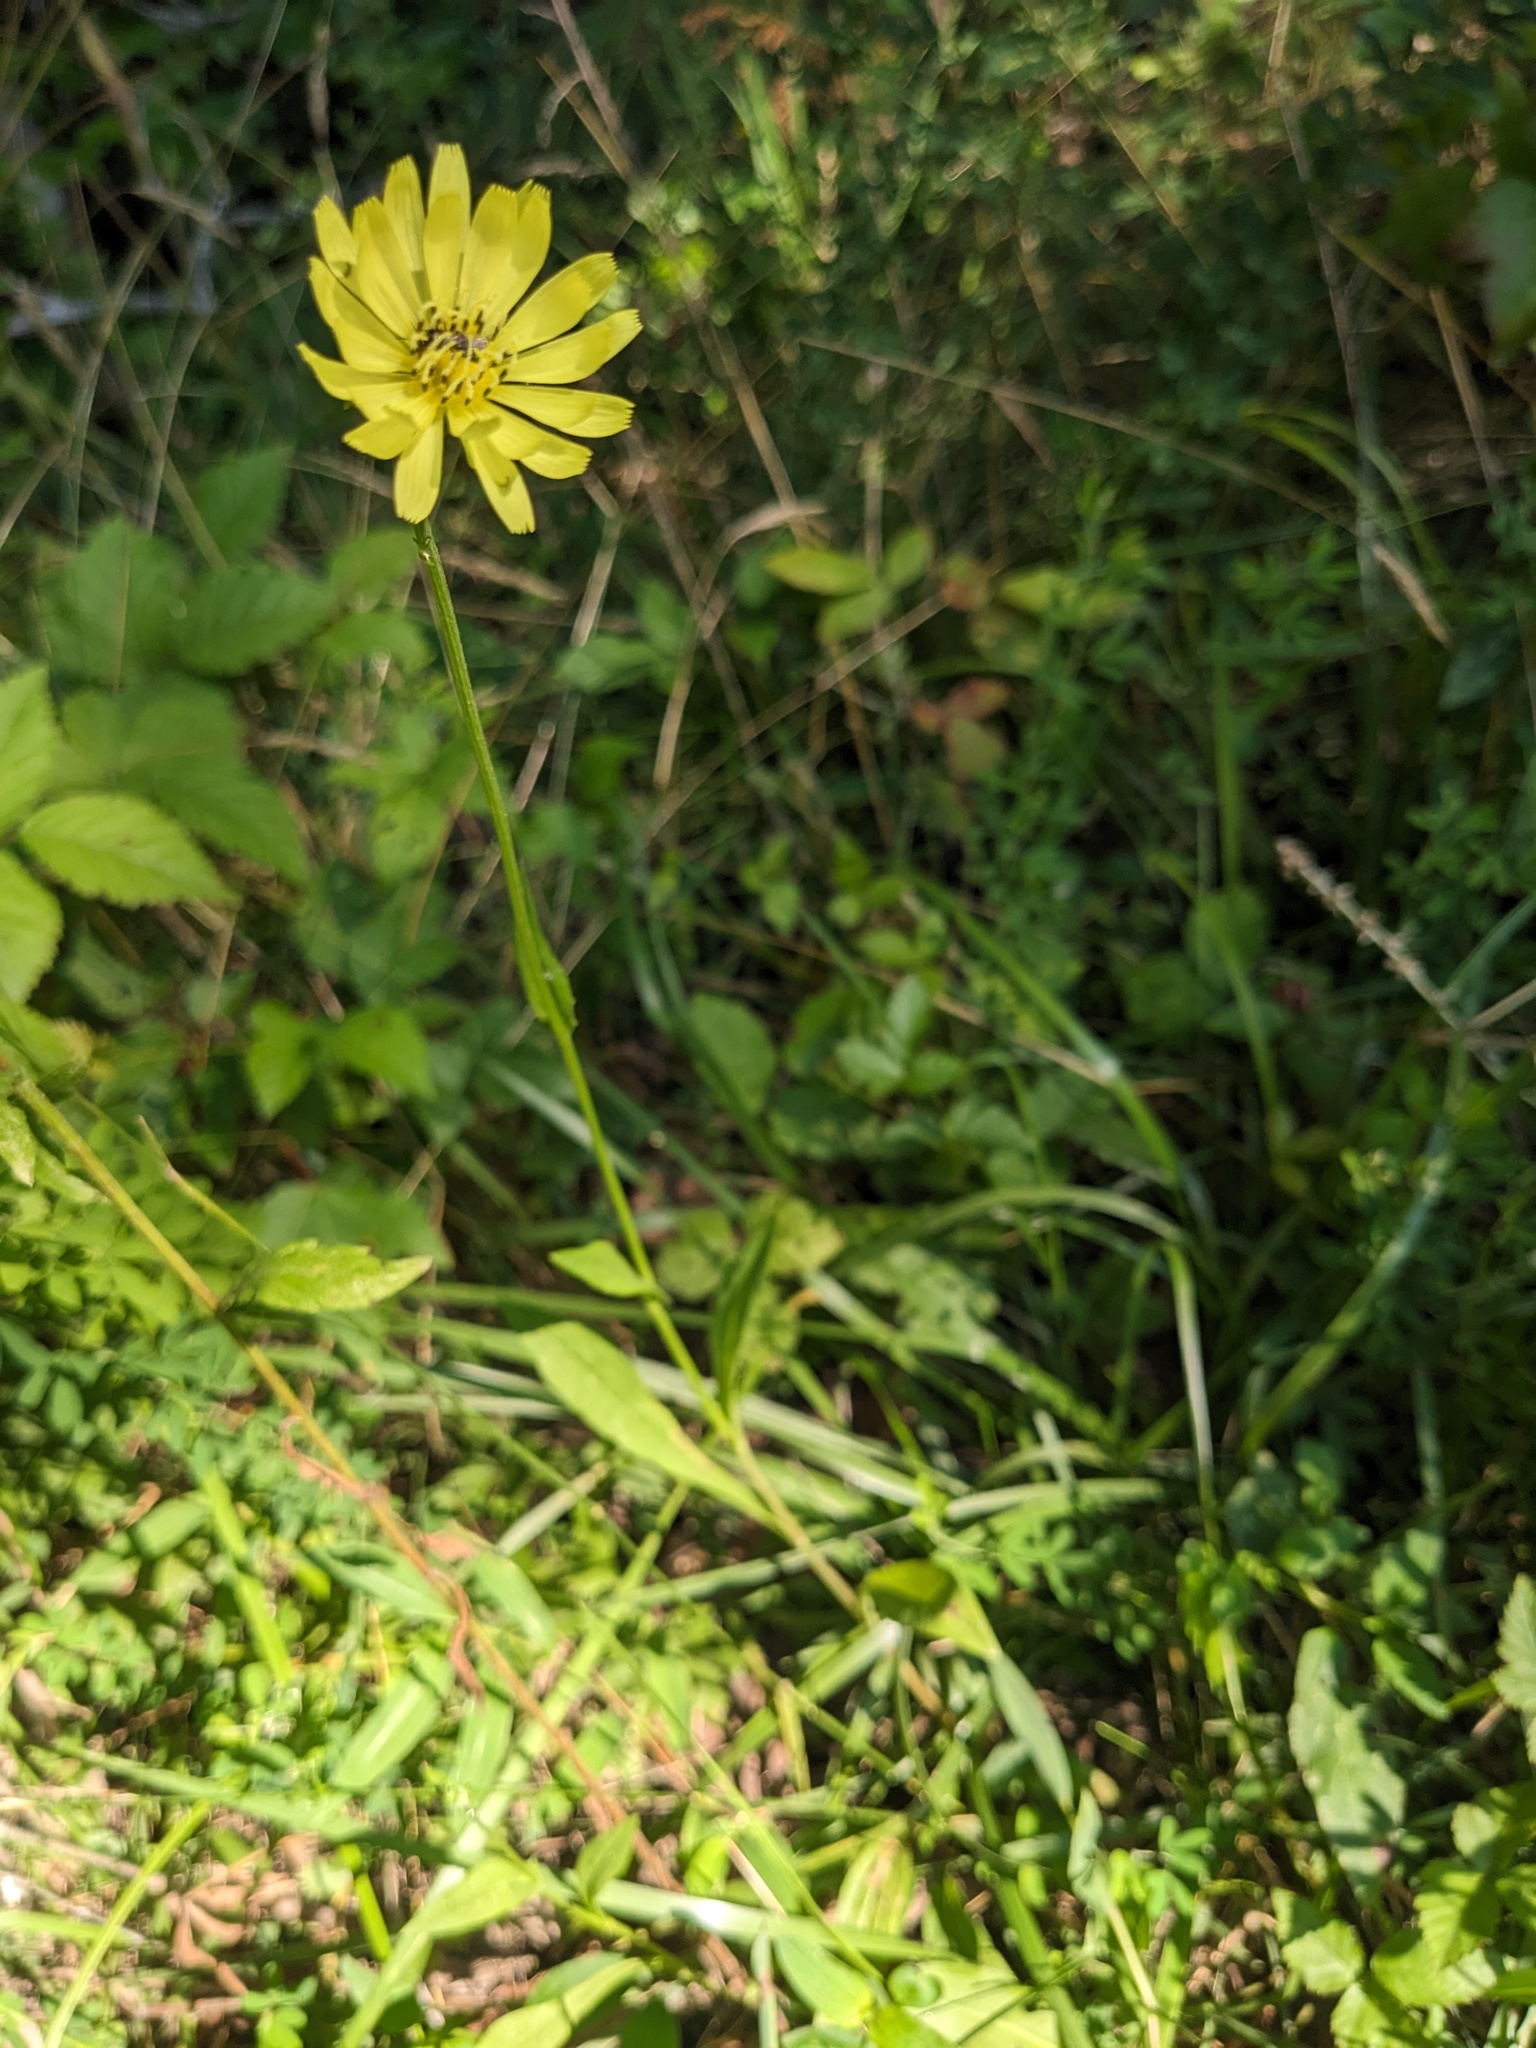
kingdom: Plantae
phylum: Tracheophyta
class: Magnoliopsida
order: Asterales
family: Asteraceae
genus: Pyrrhopappus
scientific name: Pyrrhopappus carolinianus
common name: Carolina desert-chicory
